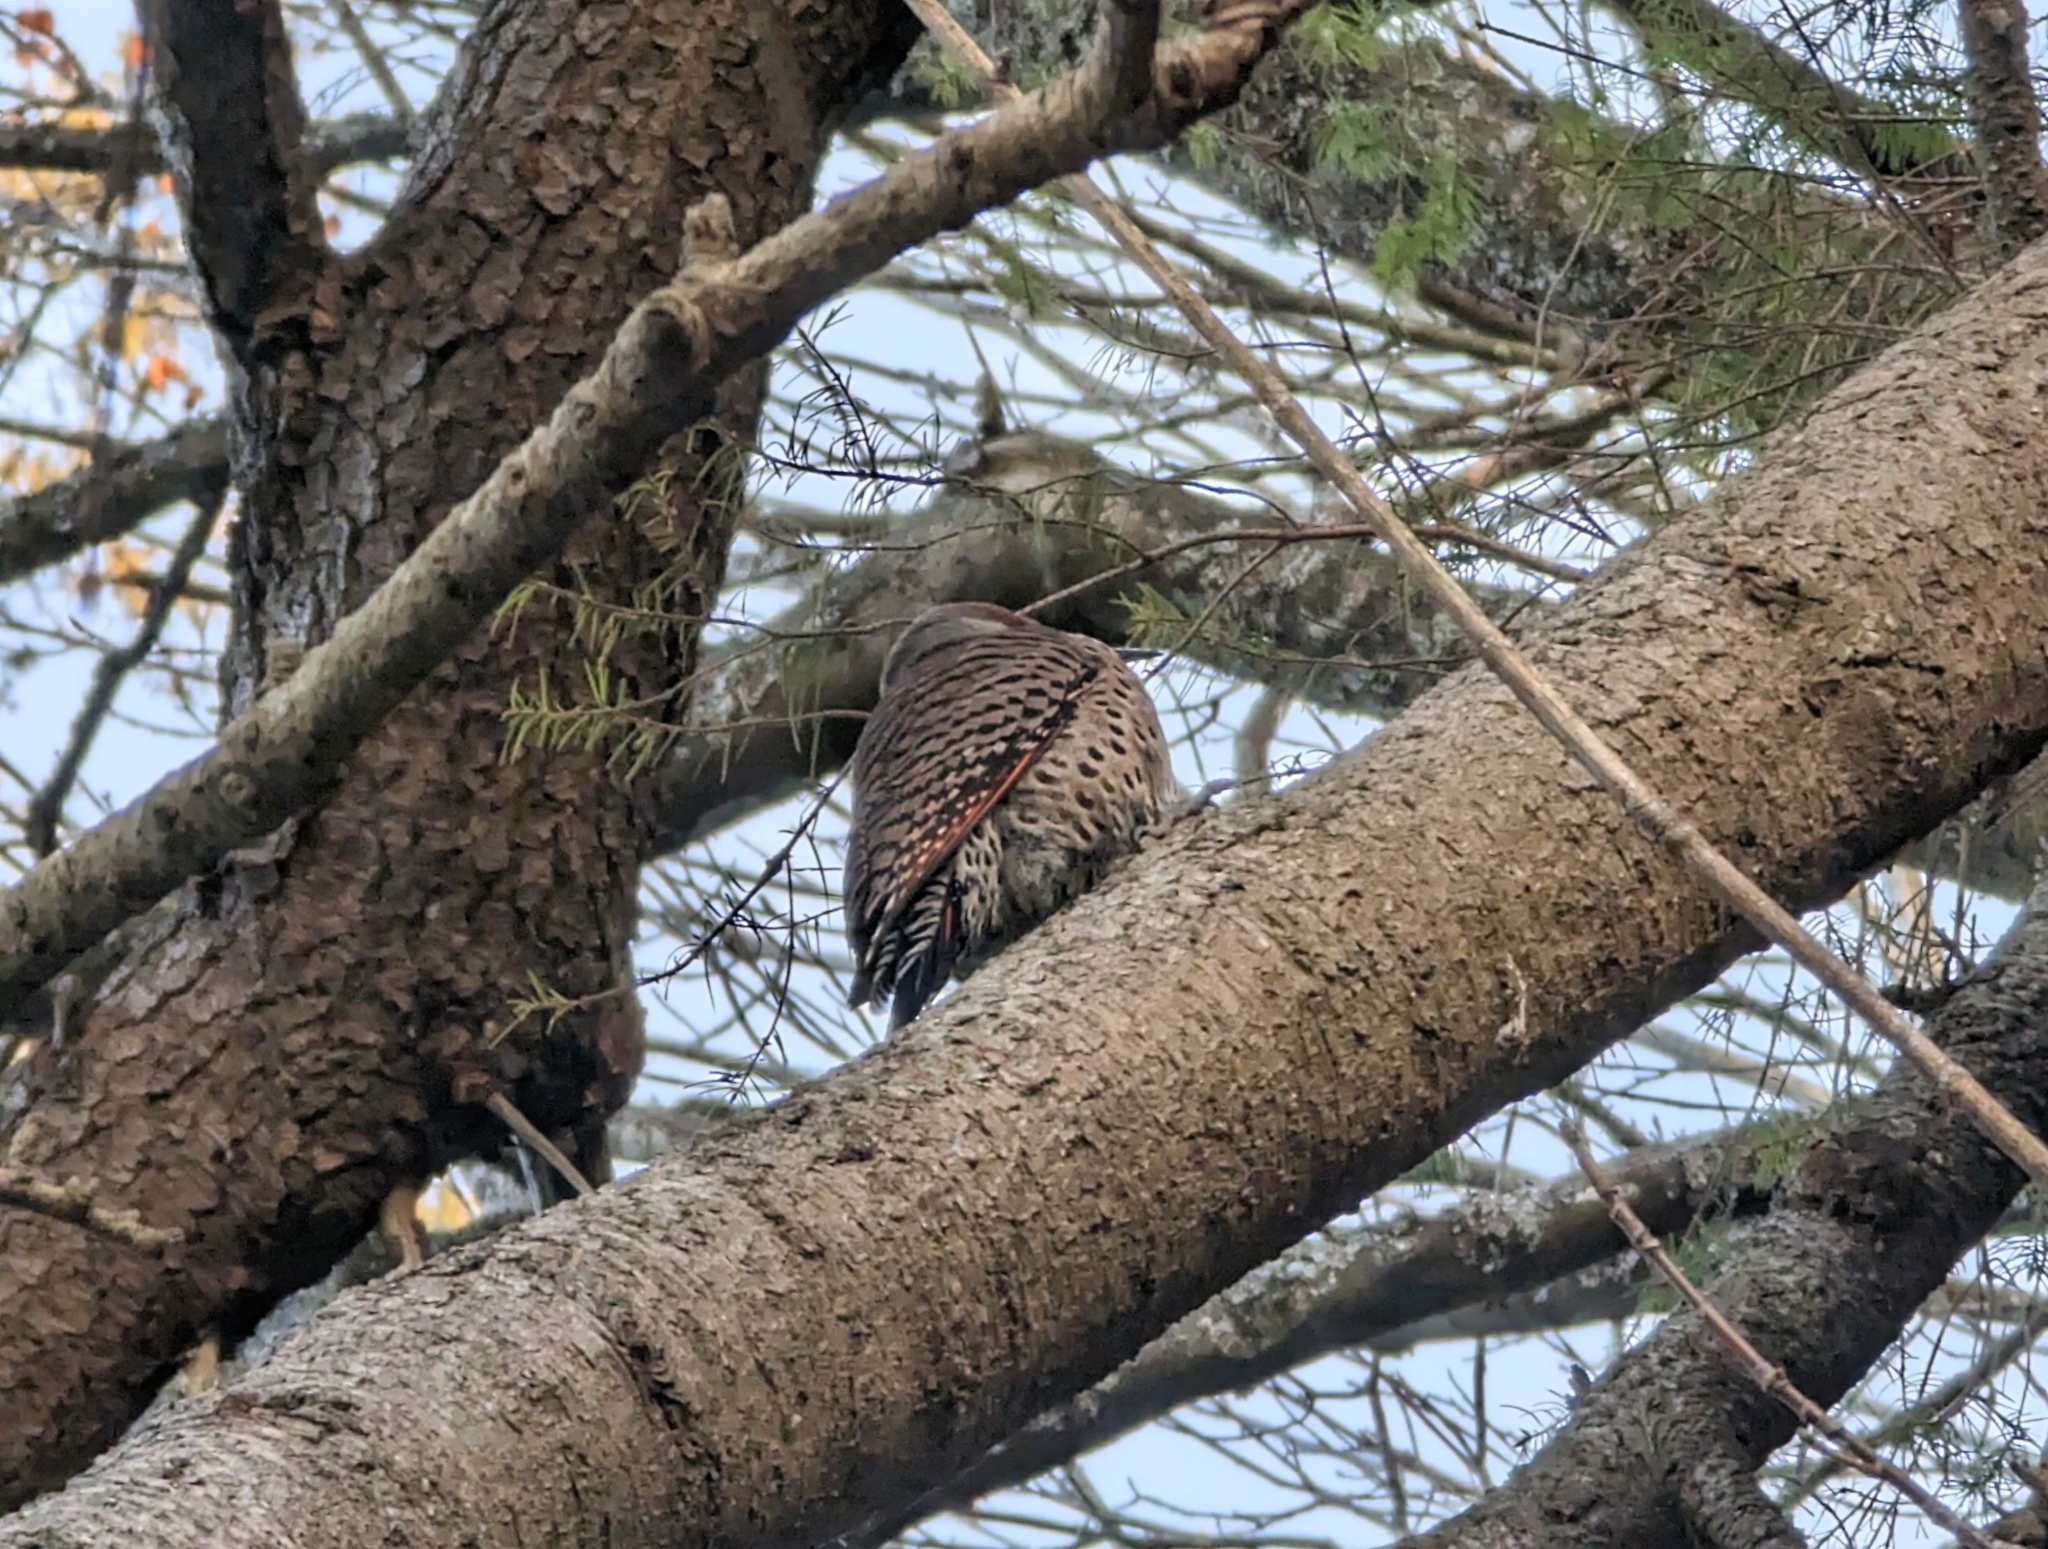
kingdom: Animalia
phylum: Chordata
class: Aves
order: Piciformes
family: Picidae
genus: Colaptes
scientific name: Colaptes auratus
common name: Northern flicker
